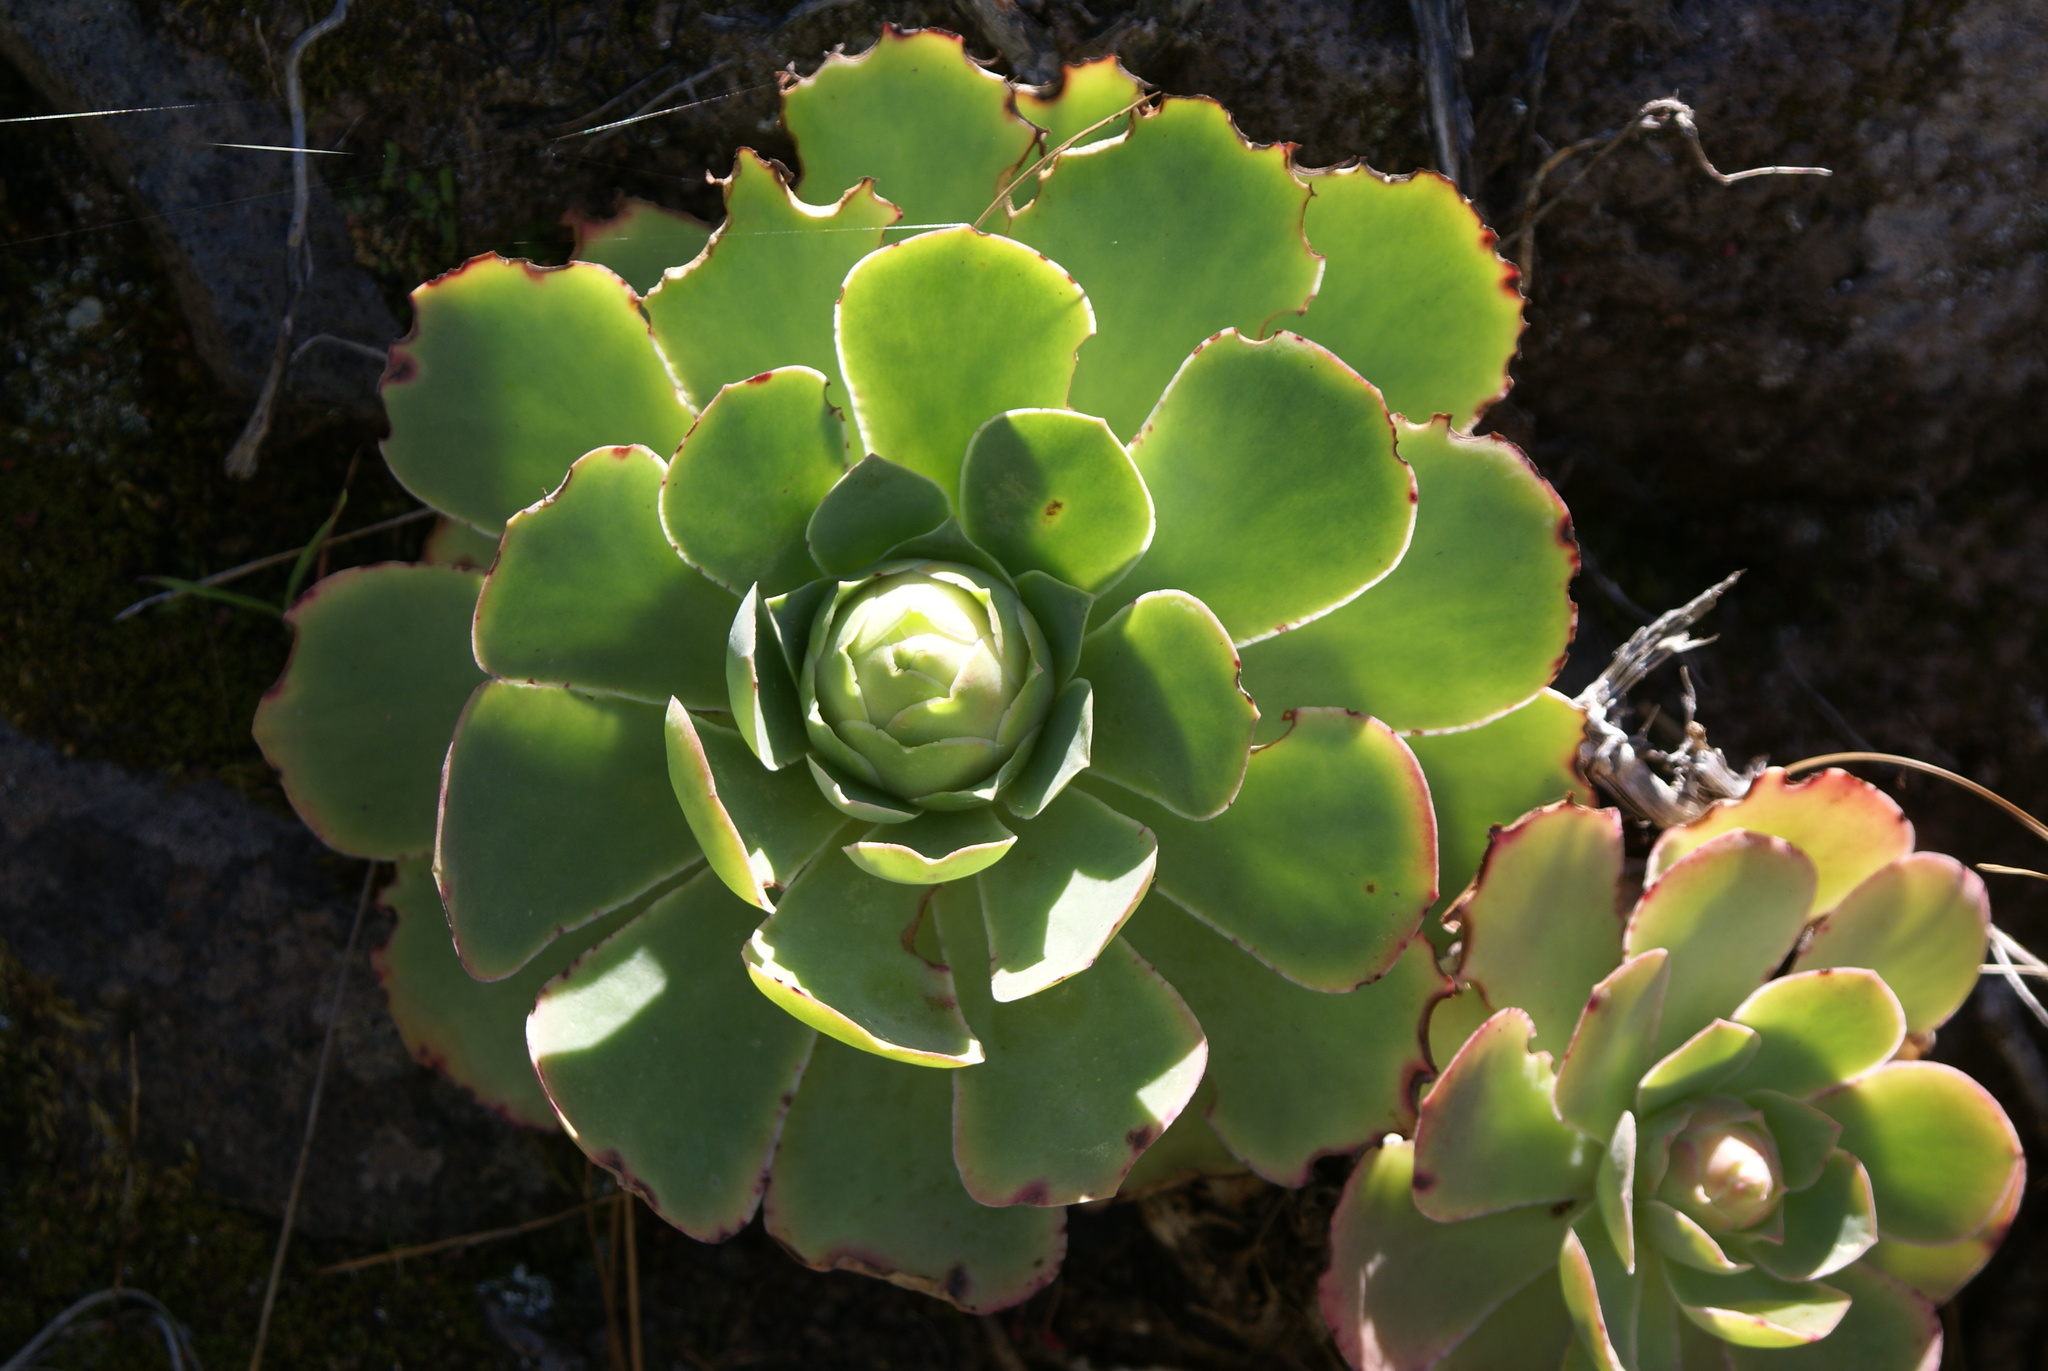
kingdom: Plantae
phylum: Tracheophyta
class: Magnoliopsida
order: Saxifragales
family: Crassulaceae
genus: Aeonium
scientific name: Aeonium diplocyclum
